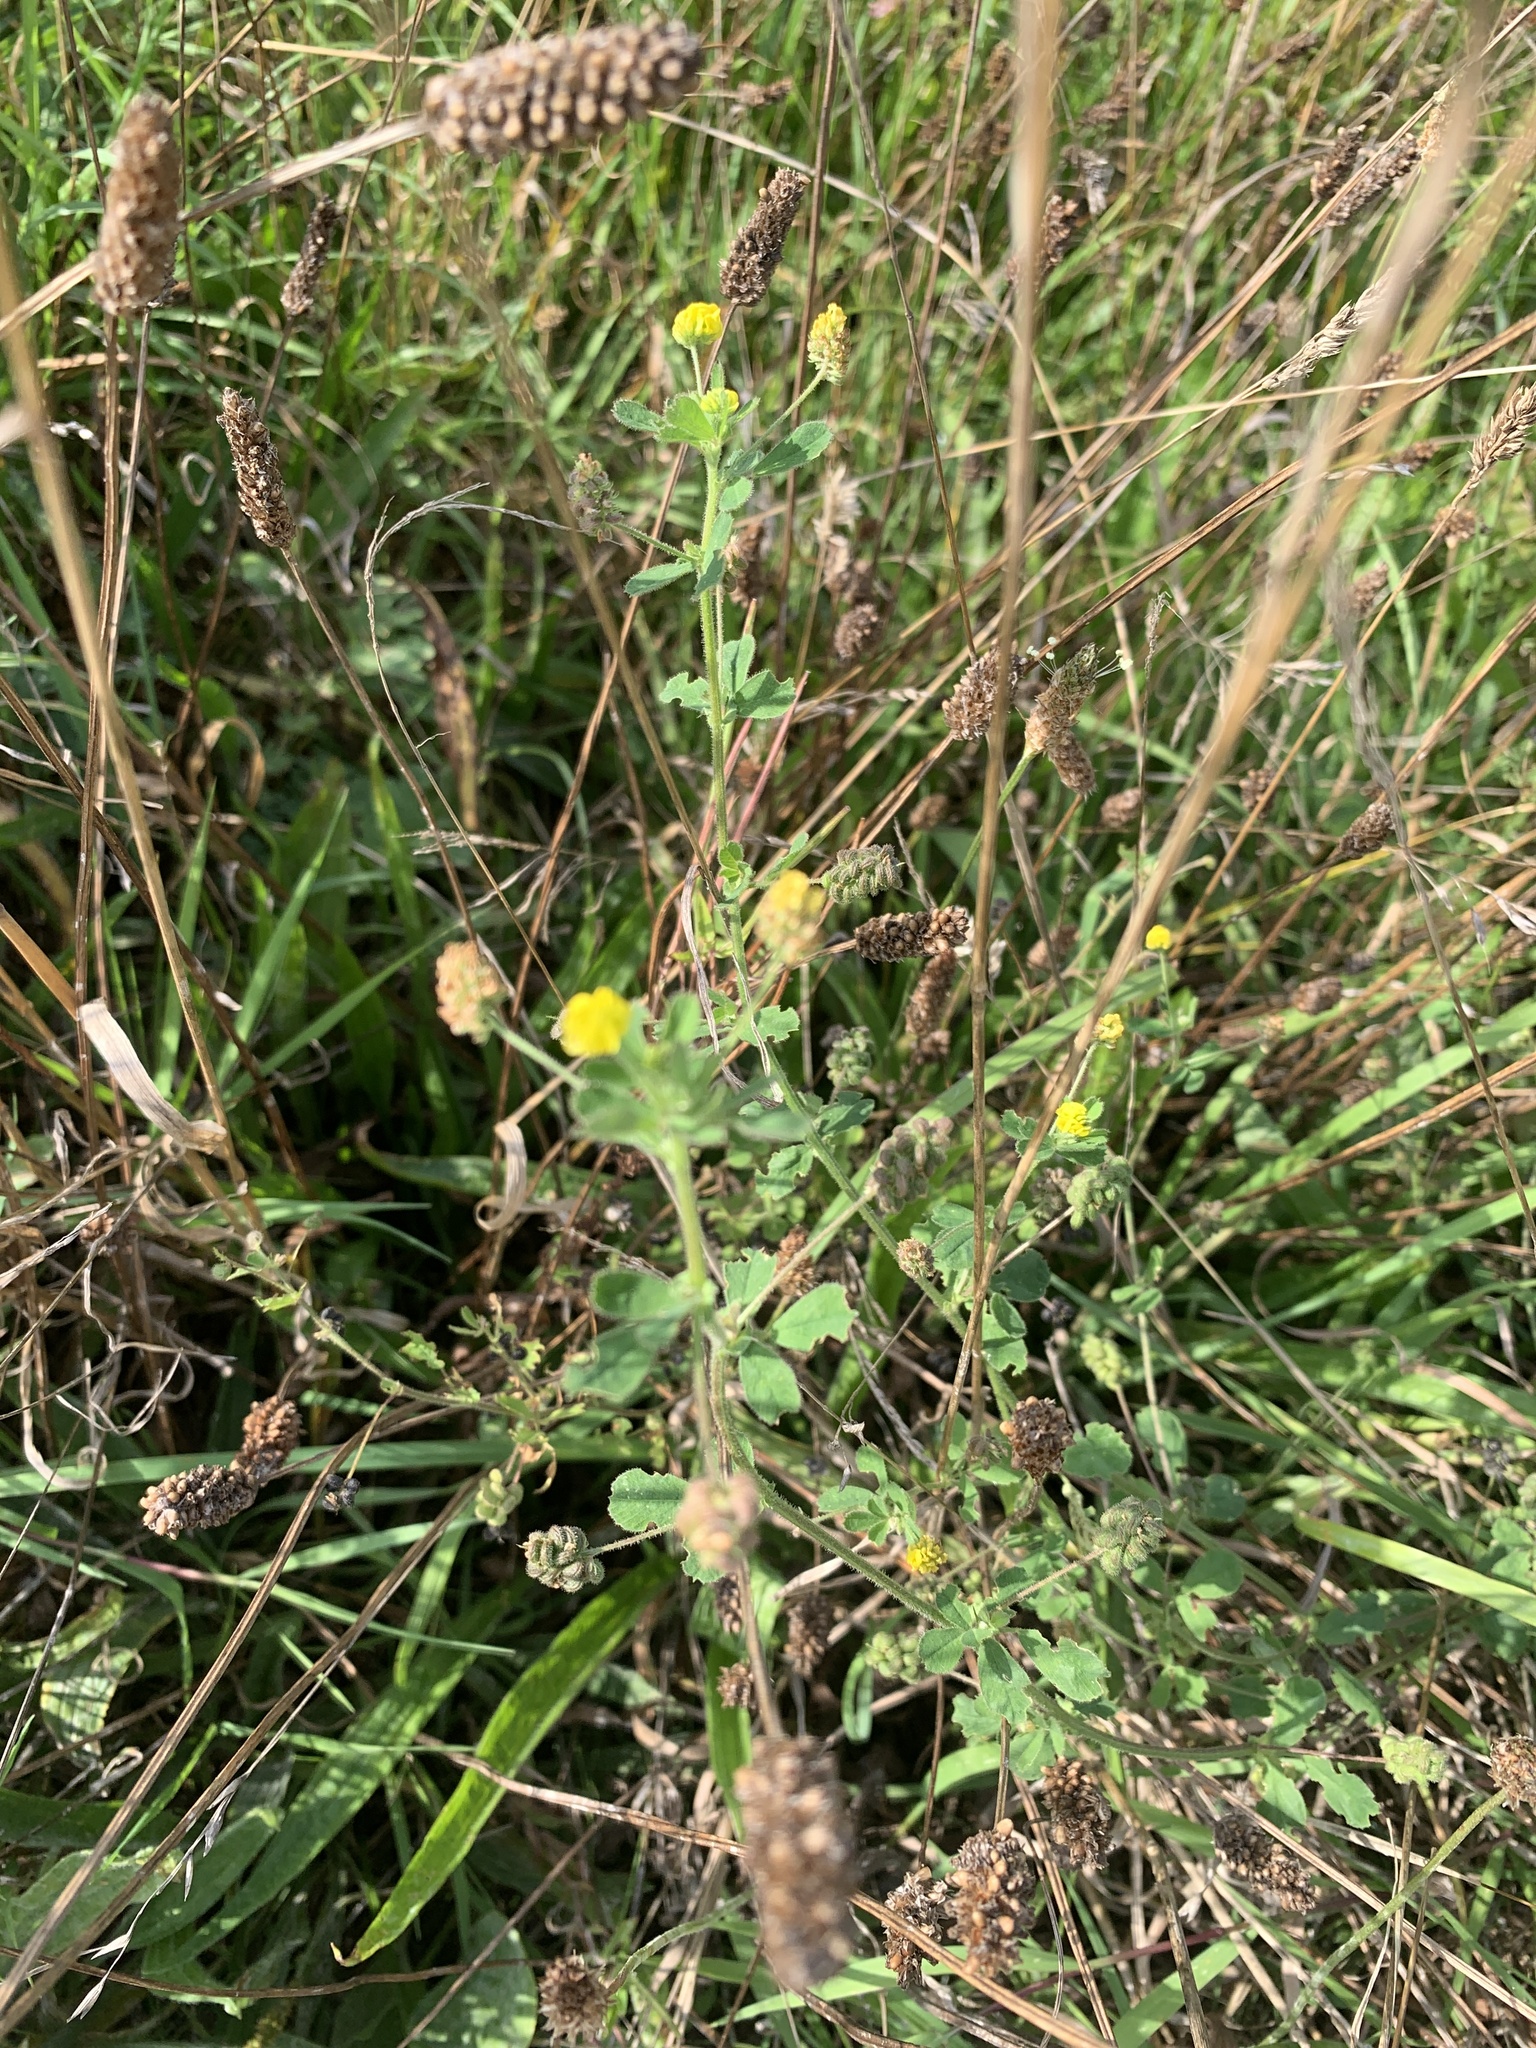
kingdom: Plantae
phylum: Tracheophyta
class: Magnoliopsida
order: Fabales
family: Fabaceae
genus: Medicago
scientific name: Medicago lupulina
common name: Black medick
